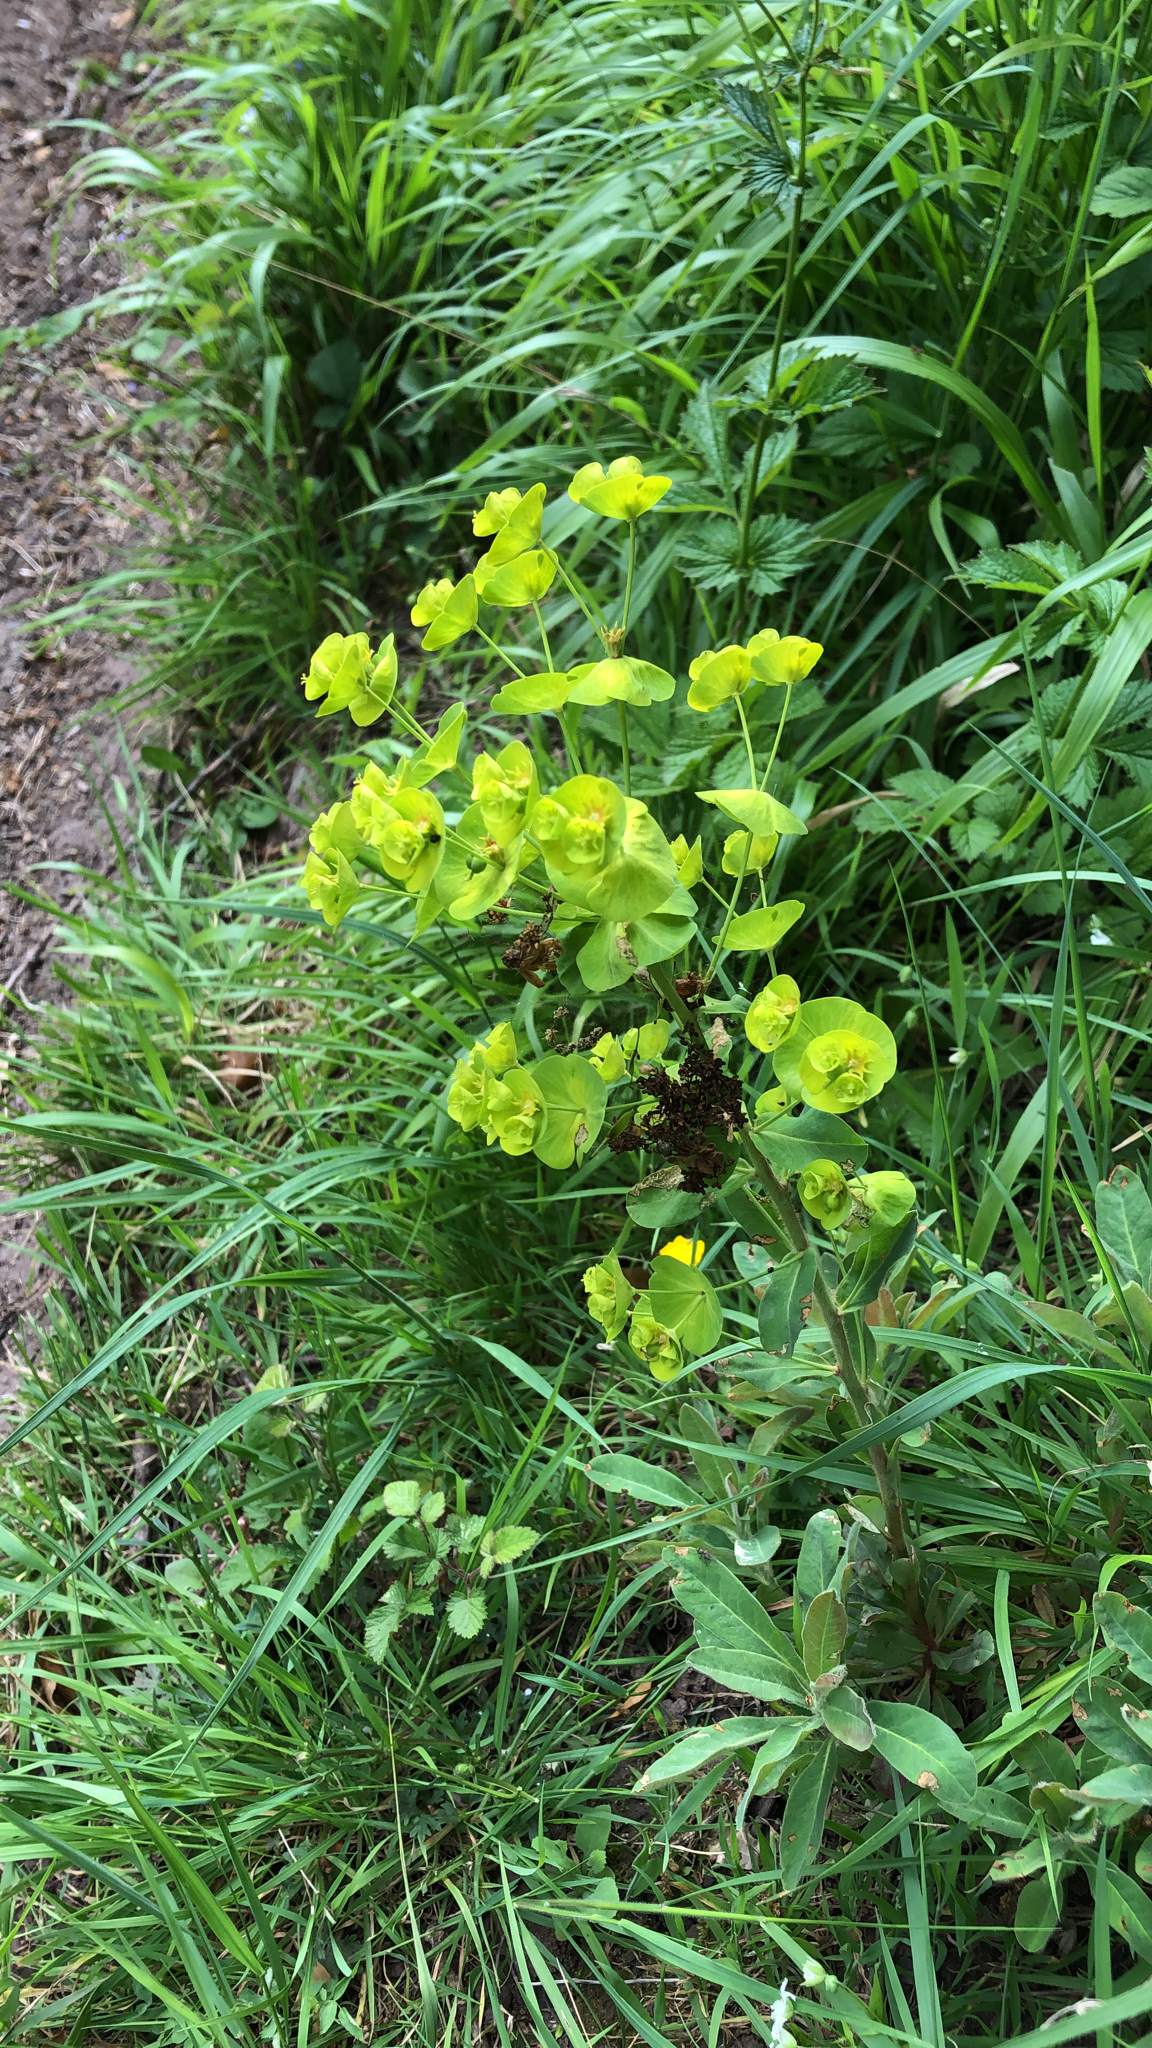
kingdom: Plantae
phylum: Tracheophyta
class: Magnoliopsida
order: Malpighiales
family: Euphorbiaceae
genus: Euphorbia
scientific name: Euphorbia amygdaloides
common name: Wood spurge
